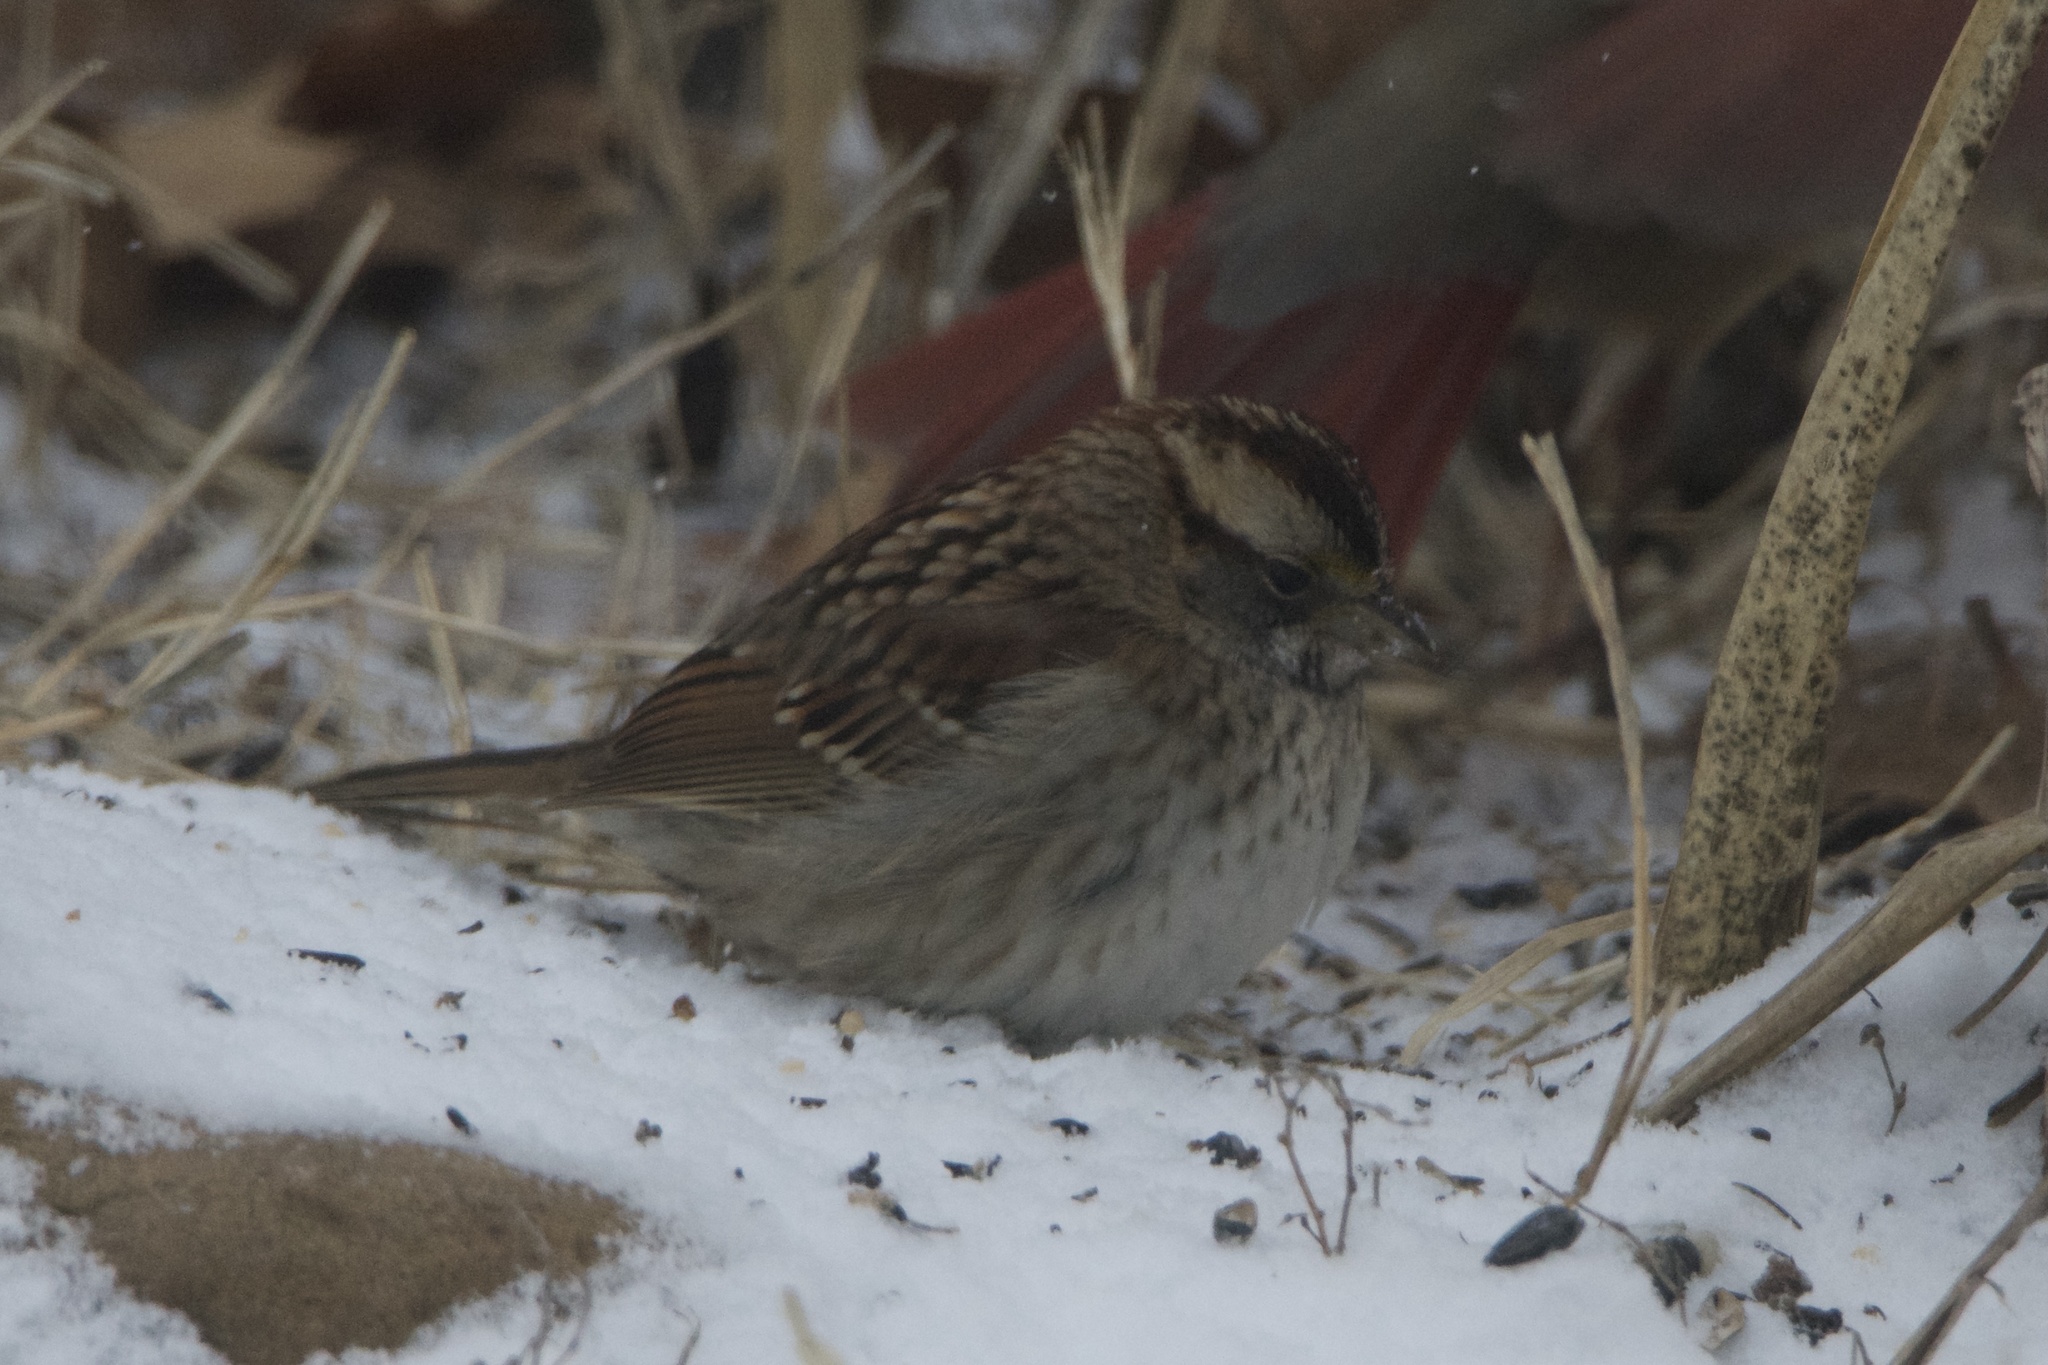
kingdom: Animalia
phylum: Chordata
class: Aves
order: Passeriformes
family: Passerellidae
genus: Zonotrichia
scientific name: Zonotrichia albicollis
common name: White-throated sparrow
